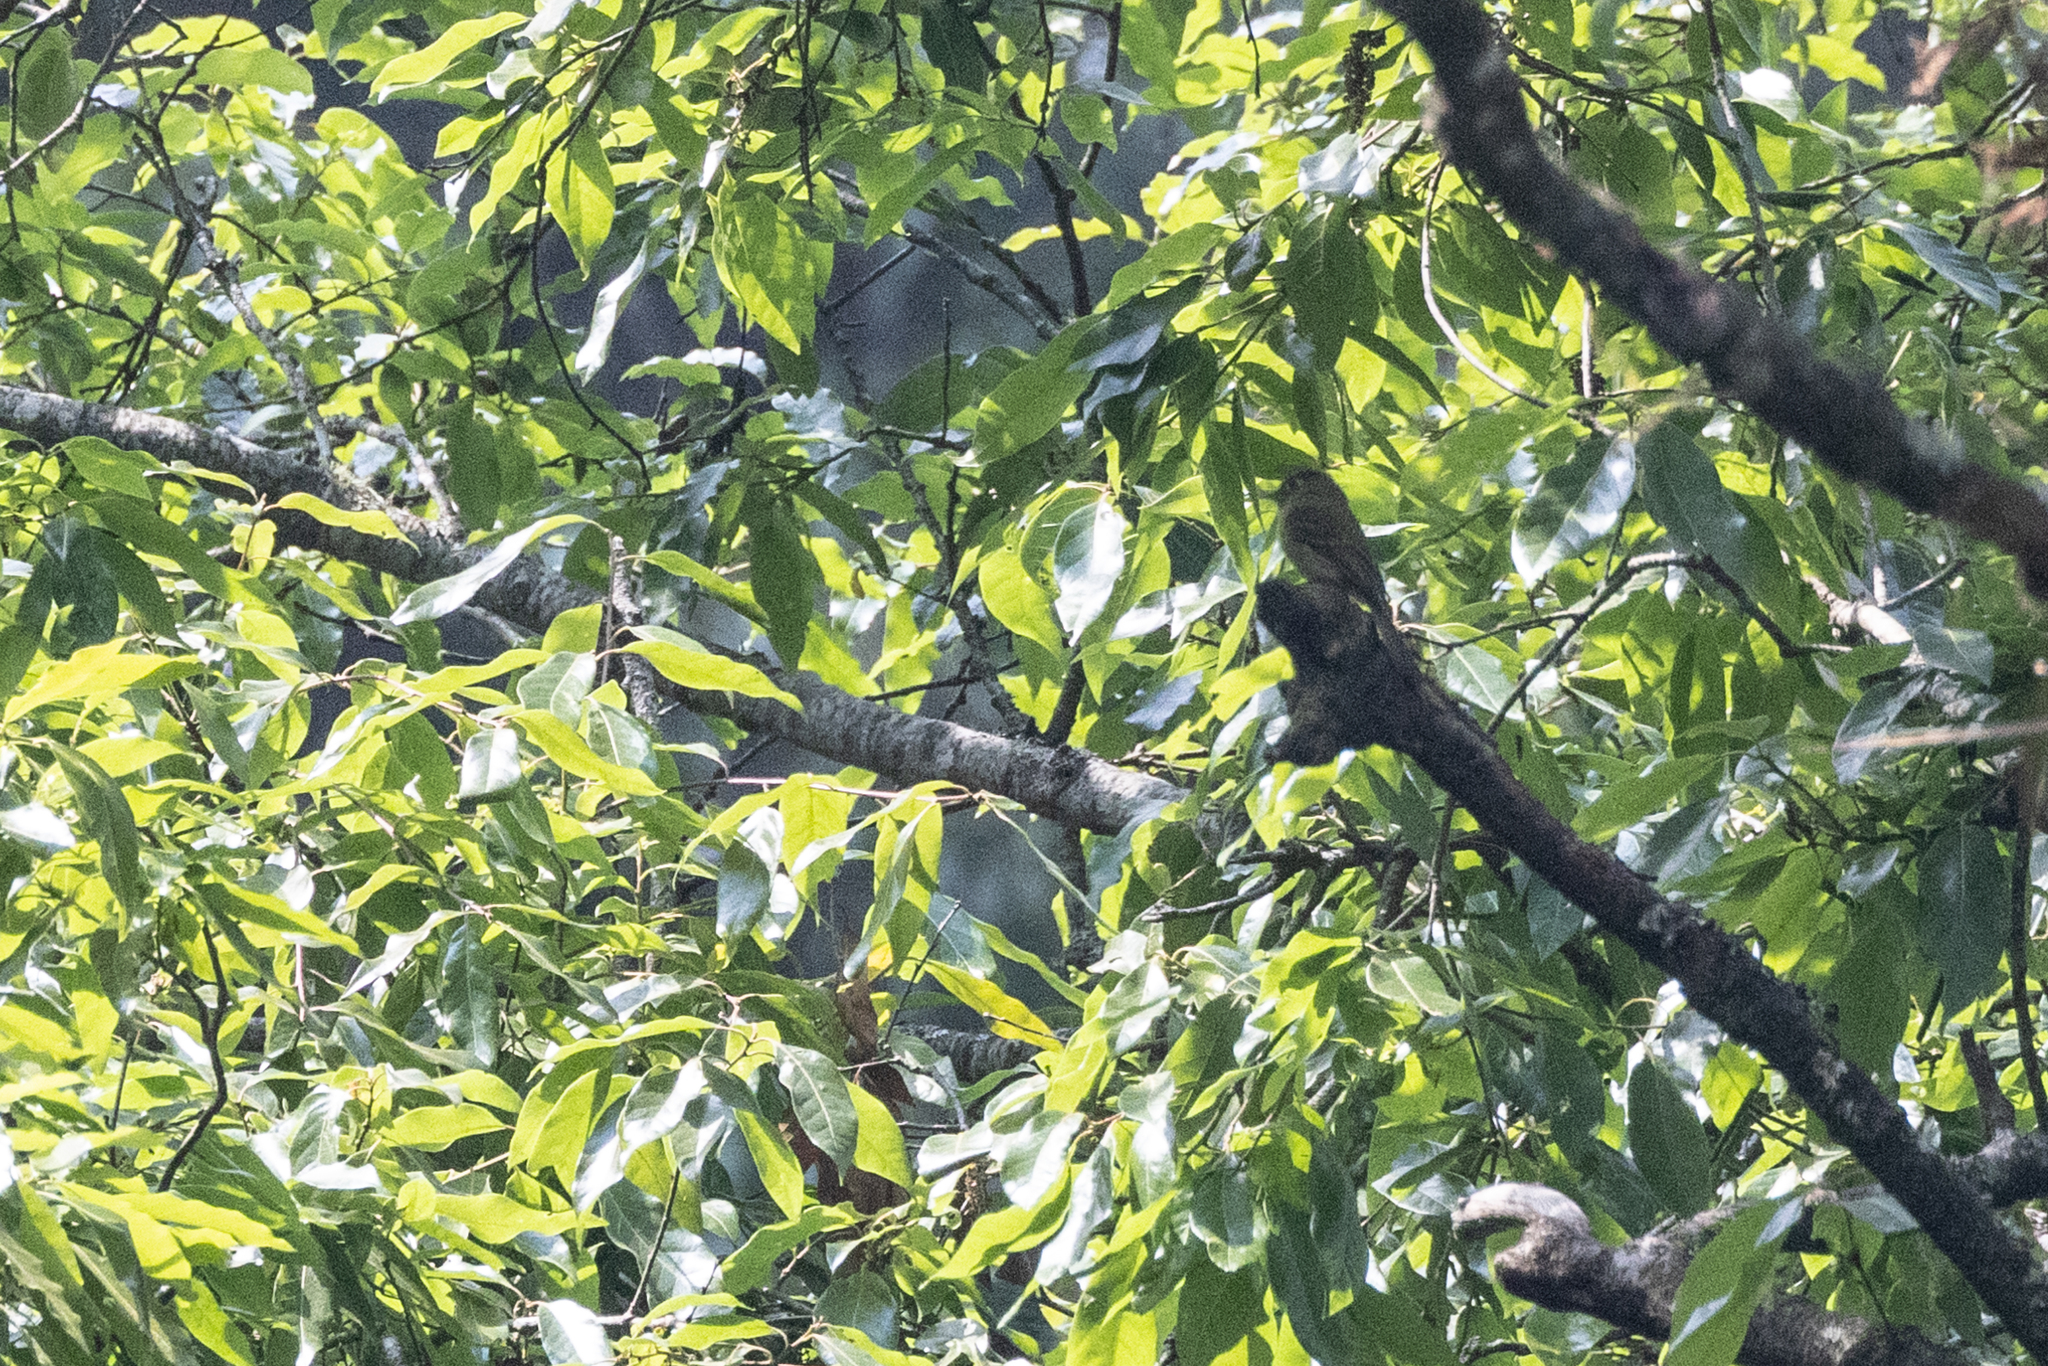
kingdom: Animalia
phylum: Chordata
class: Aves
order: Passeriformes
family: Tyrannidae
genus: Empidonax
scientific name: Empidonax flavescens
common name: Yellowish flycatcher
